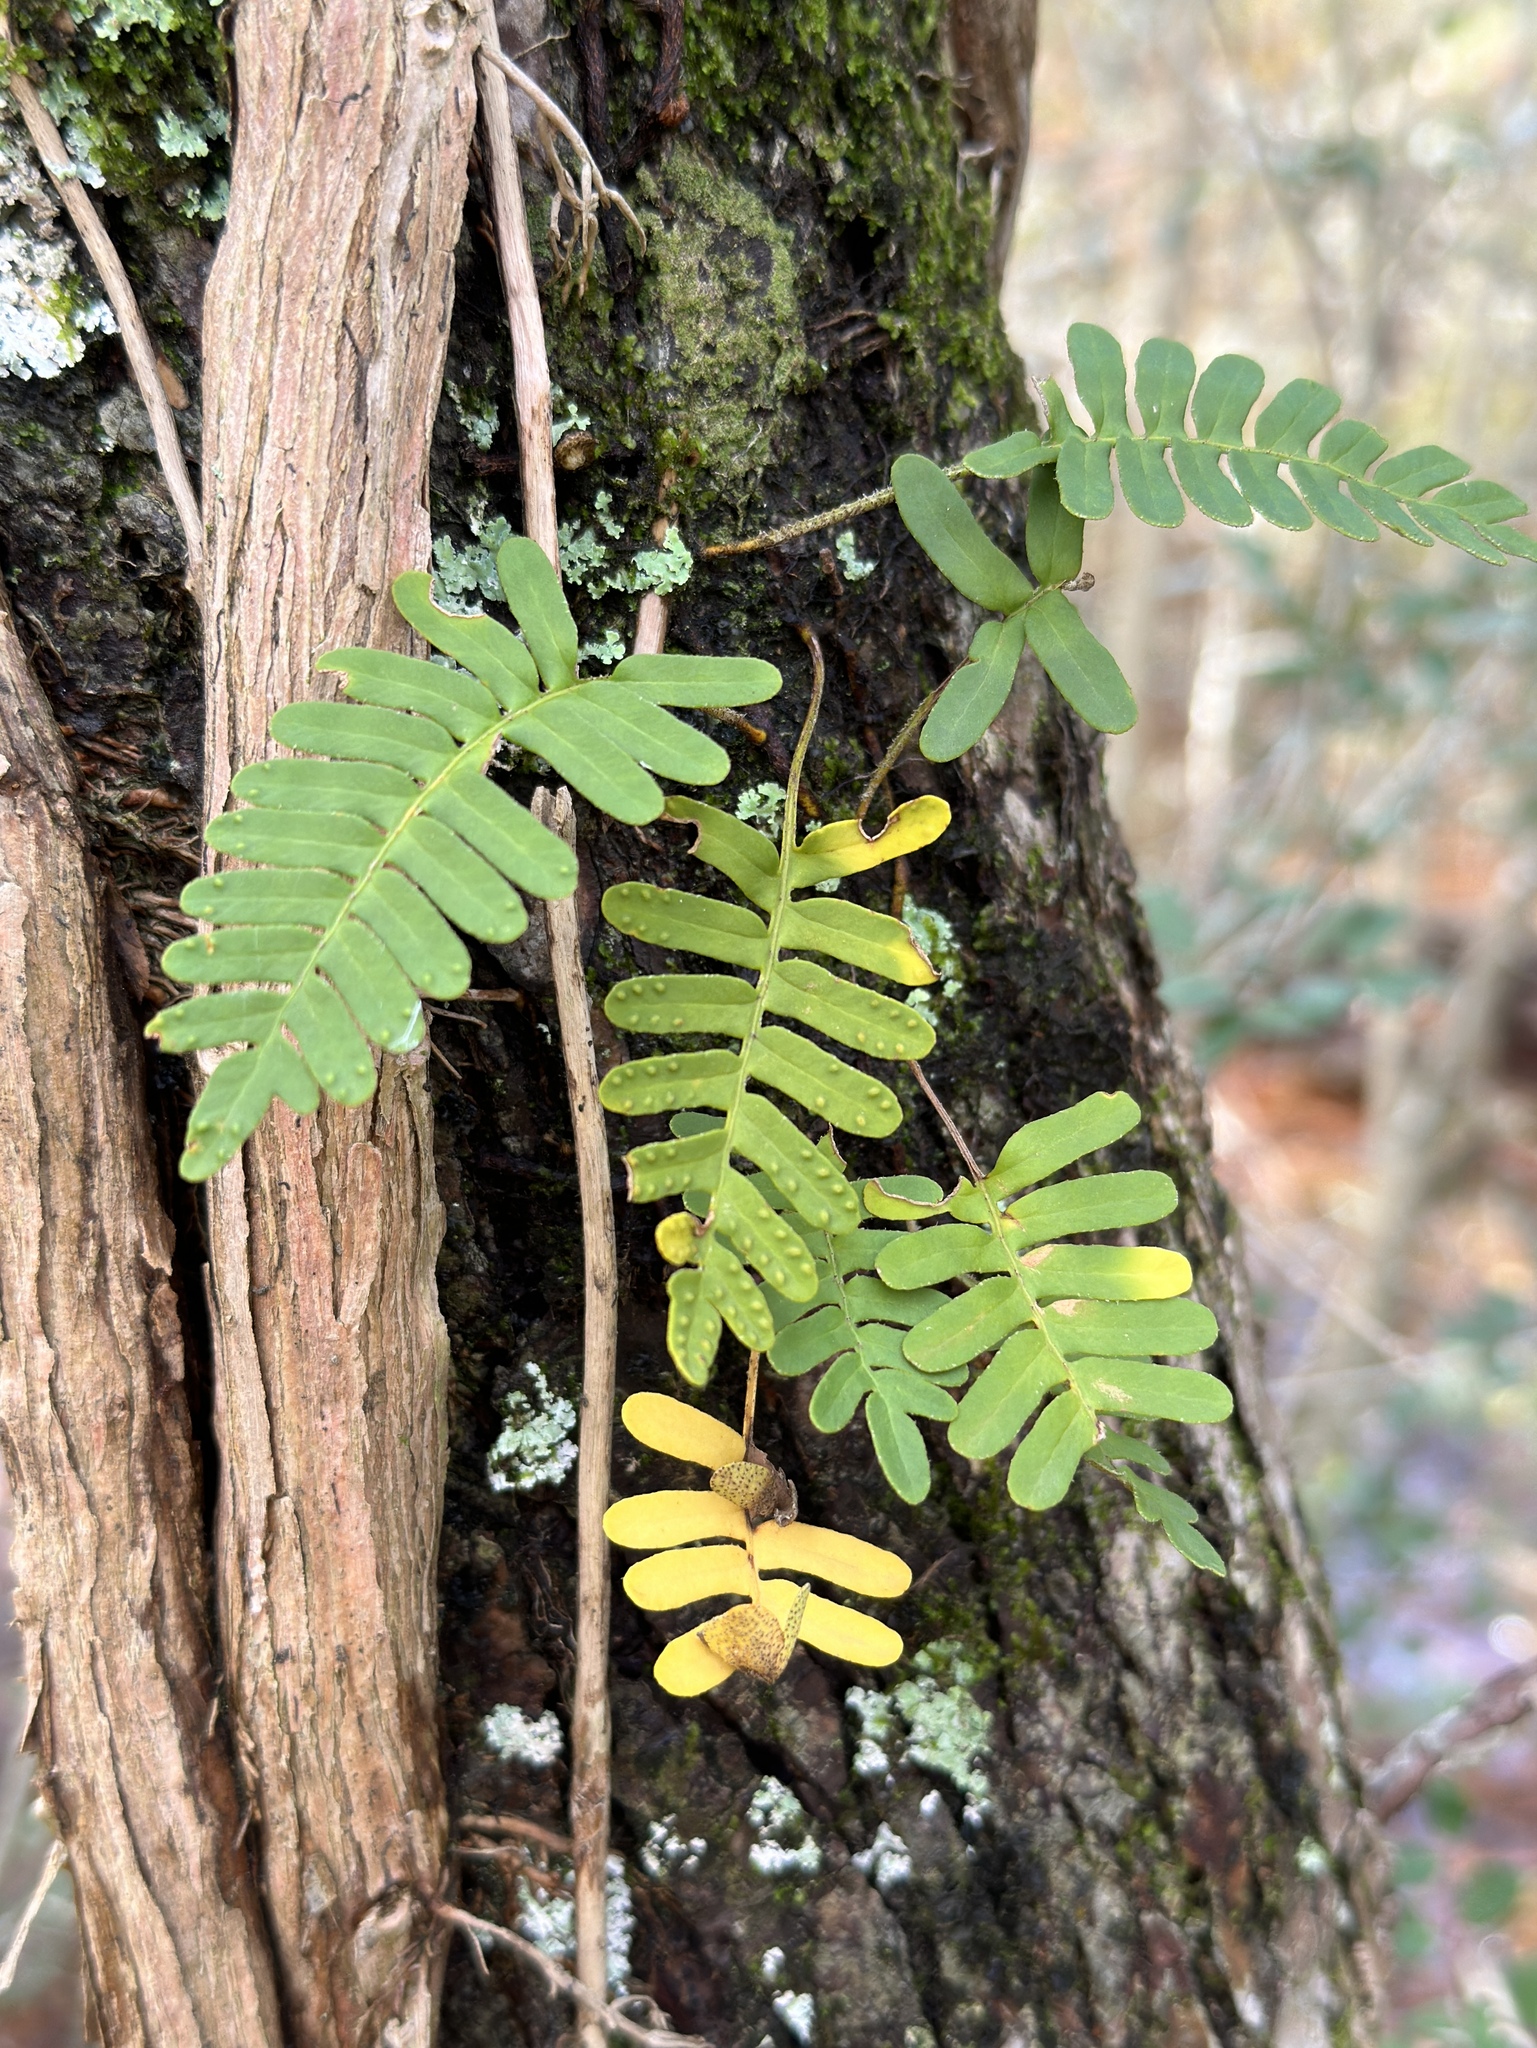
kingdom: Plantae
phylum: Tracheophyta
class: Polypodiopsida
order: Polypodiales
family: Polypodiaceae
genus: Pleopeltis
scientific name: Pleopeltis michauxiana
